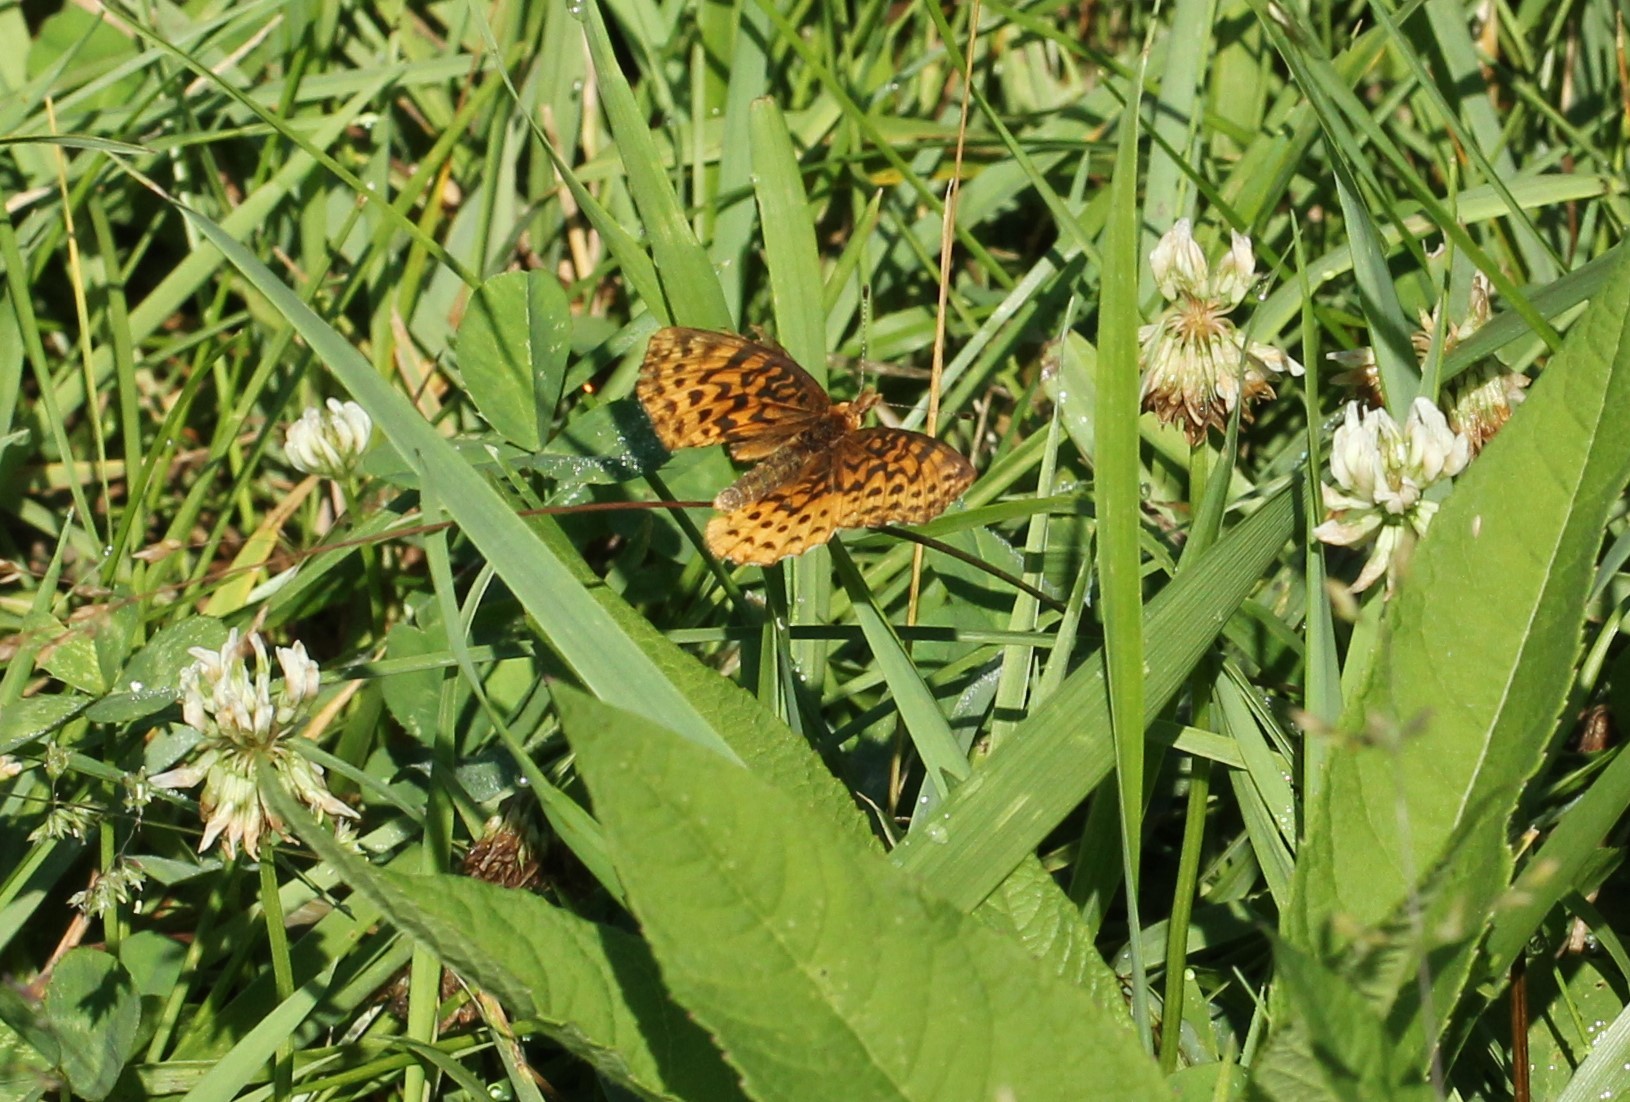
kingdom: Animalia
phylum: Arthropoda
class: Insecta
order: Lepidoptera
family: Nymphalidae
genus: Clossiana
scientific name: Clossiana toddi
